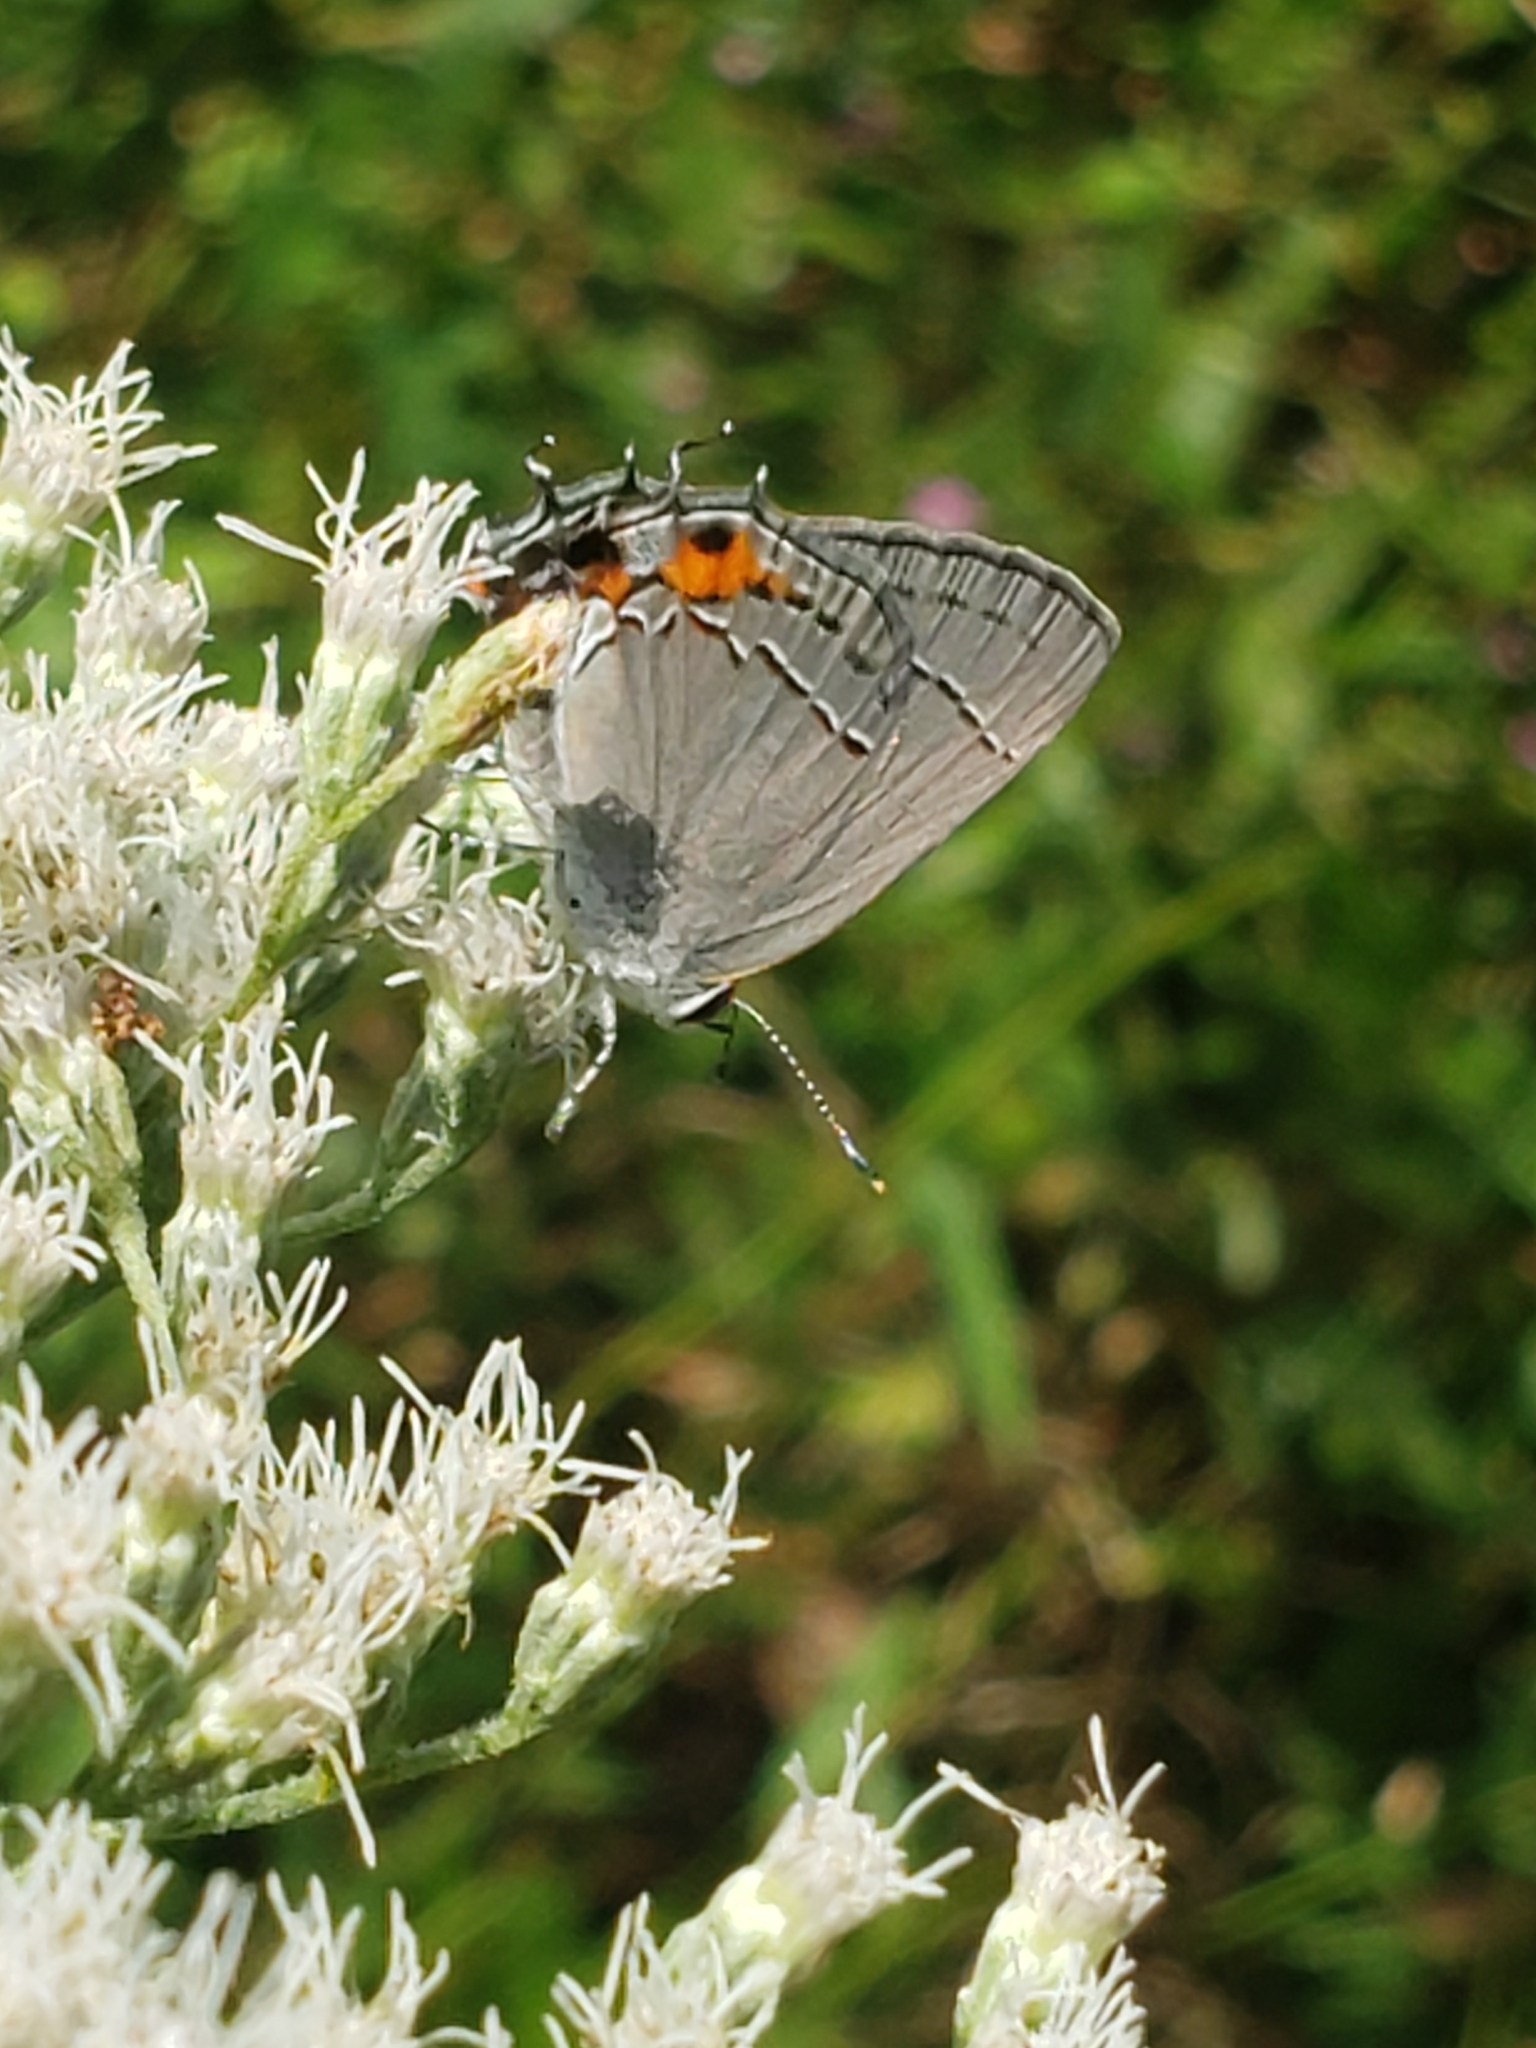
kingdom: Animalia
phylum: Arthropoda
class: Insecta
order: Lepidoptera
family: Lycaenidae
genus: Strymon
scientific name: Strymon melinus
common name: Gray hairstreak
